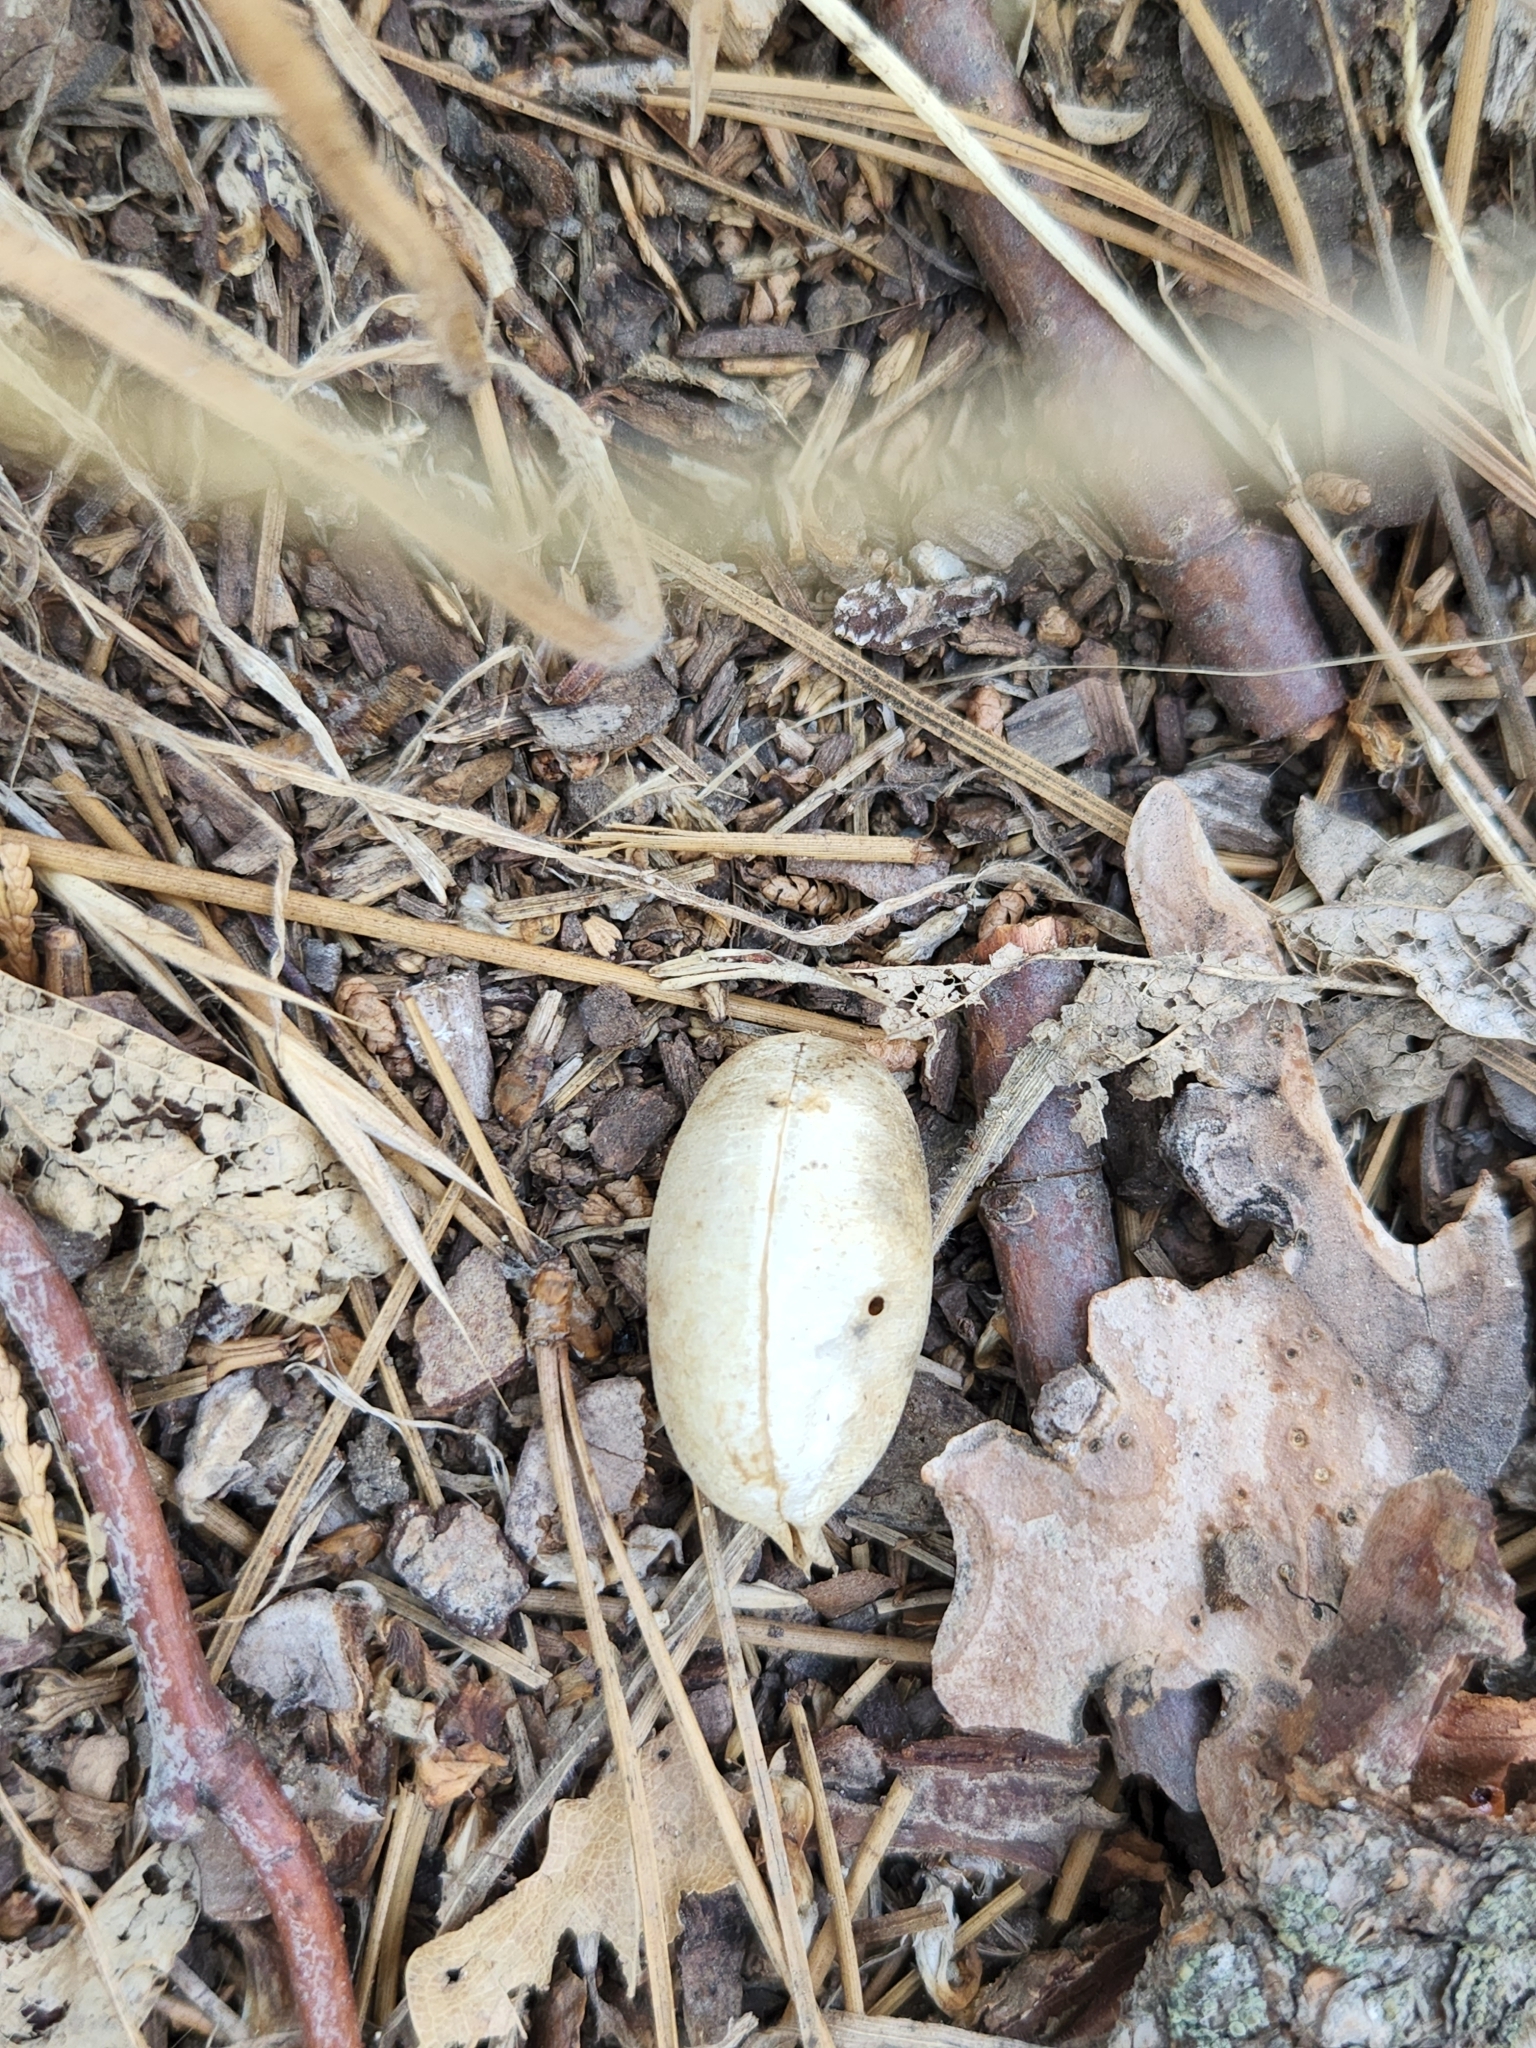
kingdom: Plantae
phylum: Tracheophyta
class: Magnoliopsida
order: Fabales
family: Fabaceae
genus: Astragalus
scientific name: Astragalus douglasii
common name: Jacumba milkvetch
